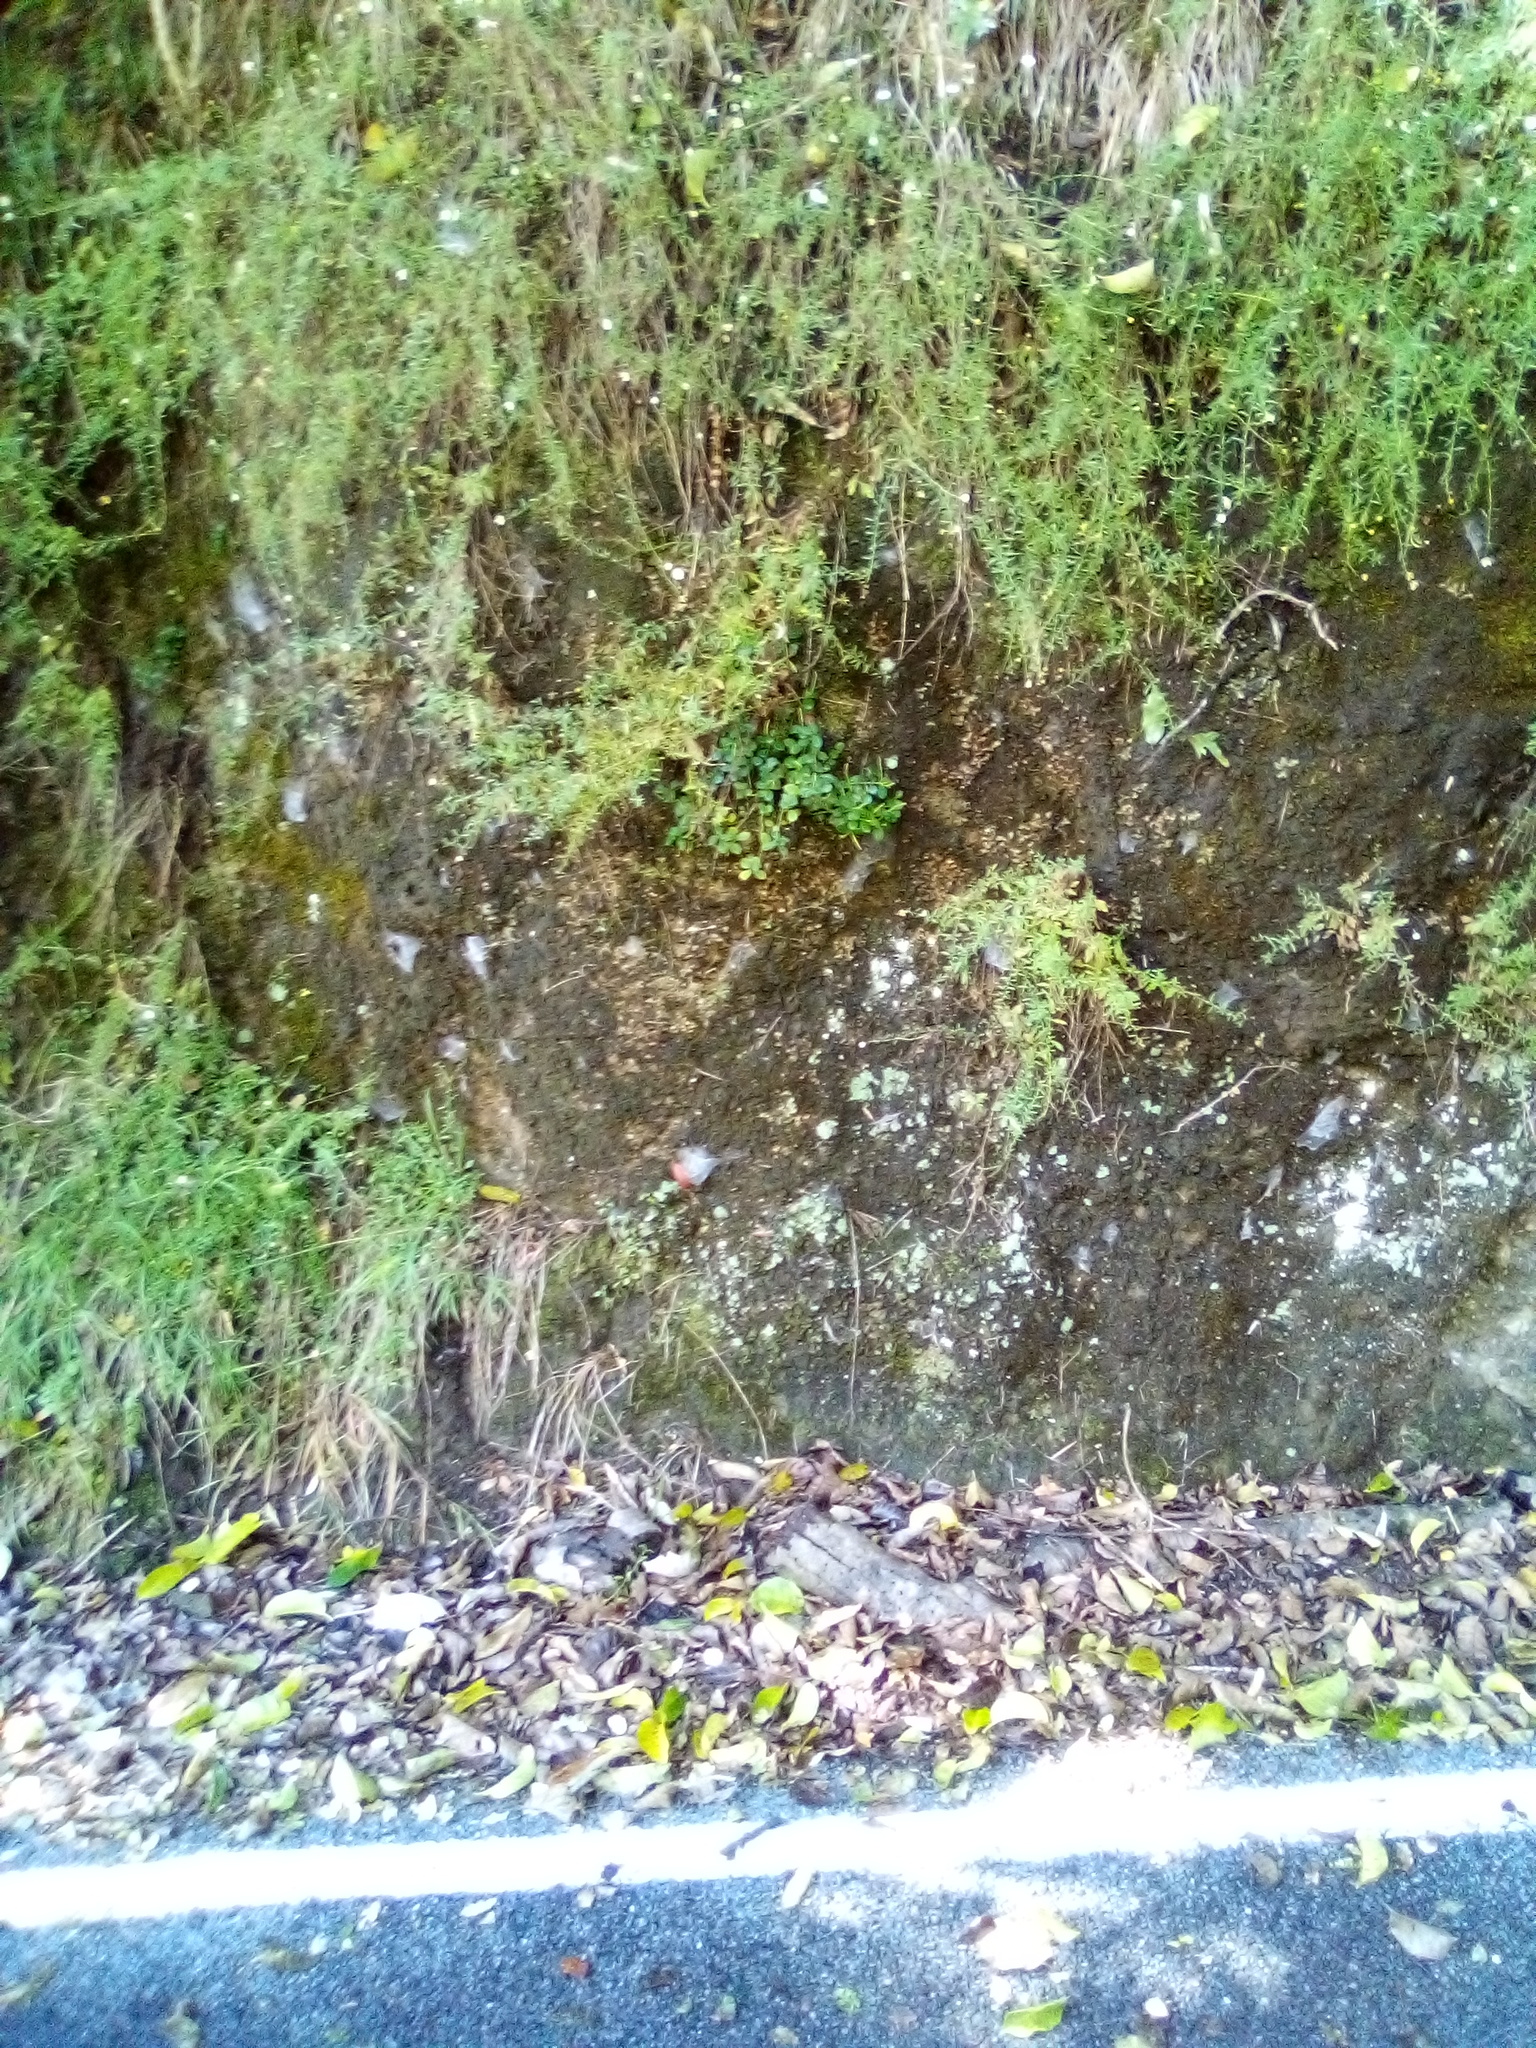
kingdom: Plantae
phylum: Tracheophyta
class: Magnoliopsida
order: Piperales
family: Piperaceae
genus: Peperomia
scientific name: Peperomia urvilleana
